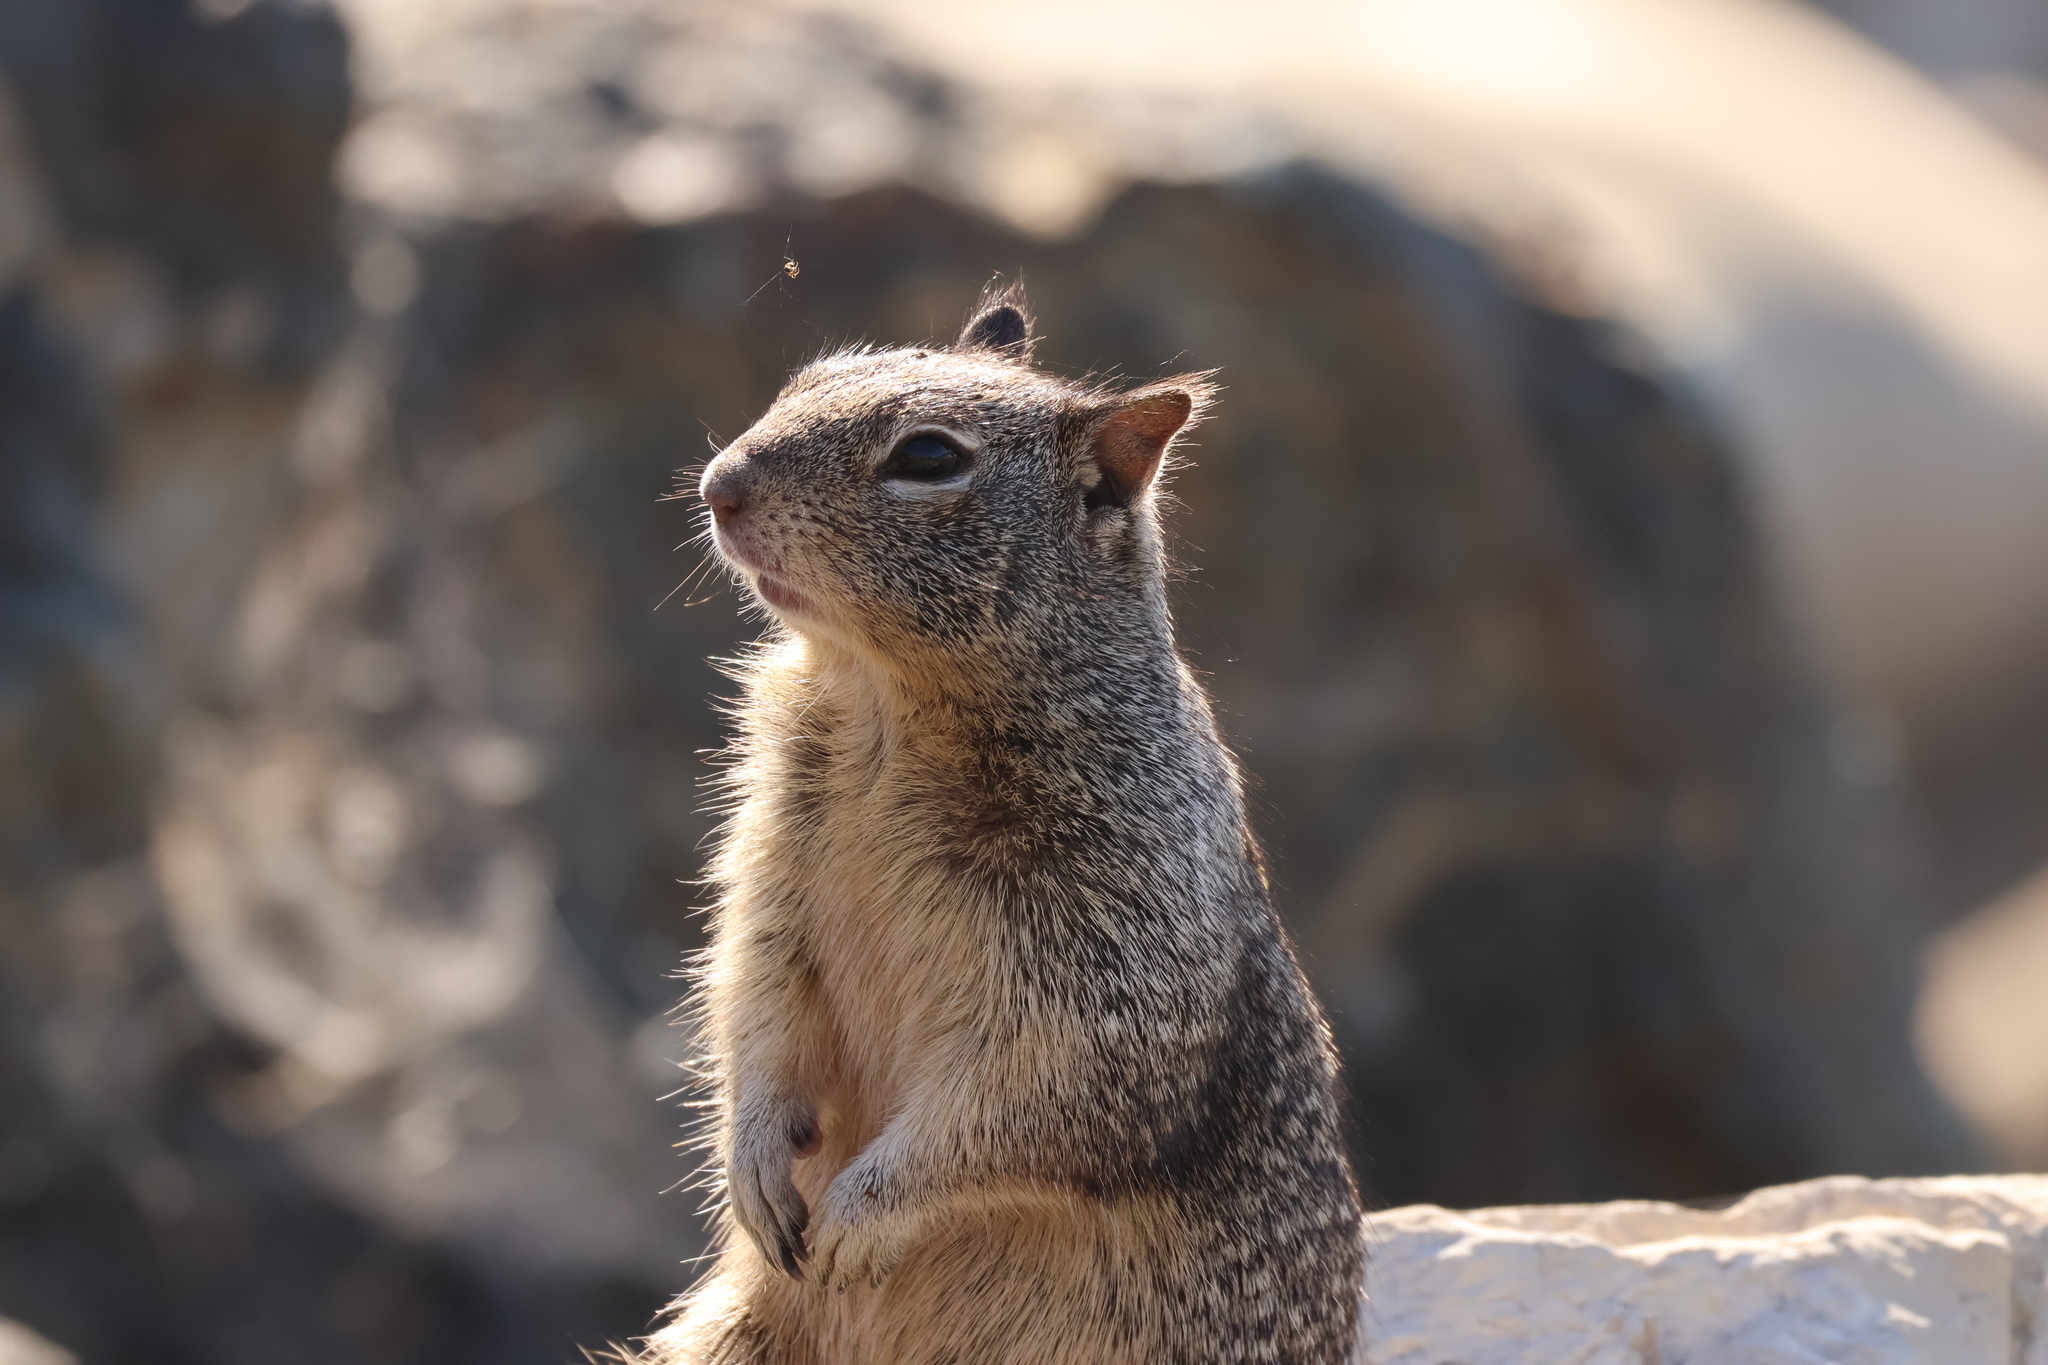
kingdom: Animalia
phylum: Chordata
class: Mammalia
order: Rodentia
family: Sciuridae
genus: Otospermophilus
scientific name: Otospermophilus beecheyi
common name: California ground squirrel
